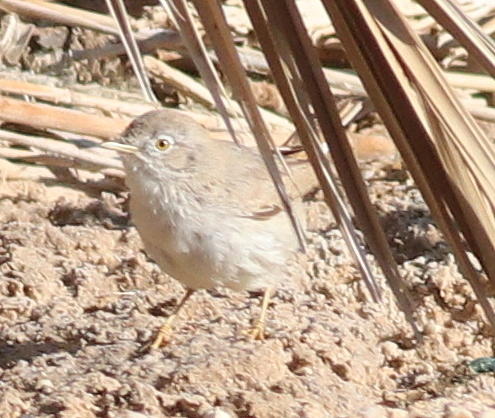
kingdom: Animalia
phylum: Chordata
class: Aves
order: Passeriformes
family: Sylviidae
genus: Sylvia
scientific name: Sylvia nana
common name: Asian desert warbler
